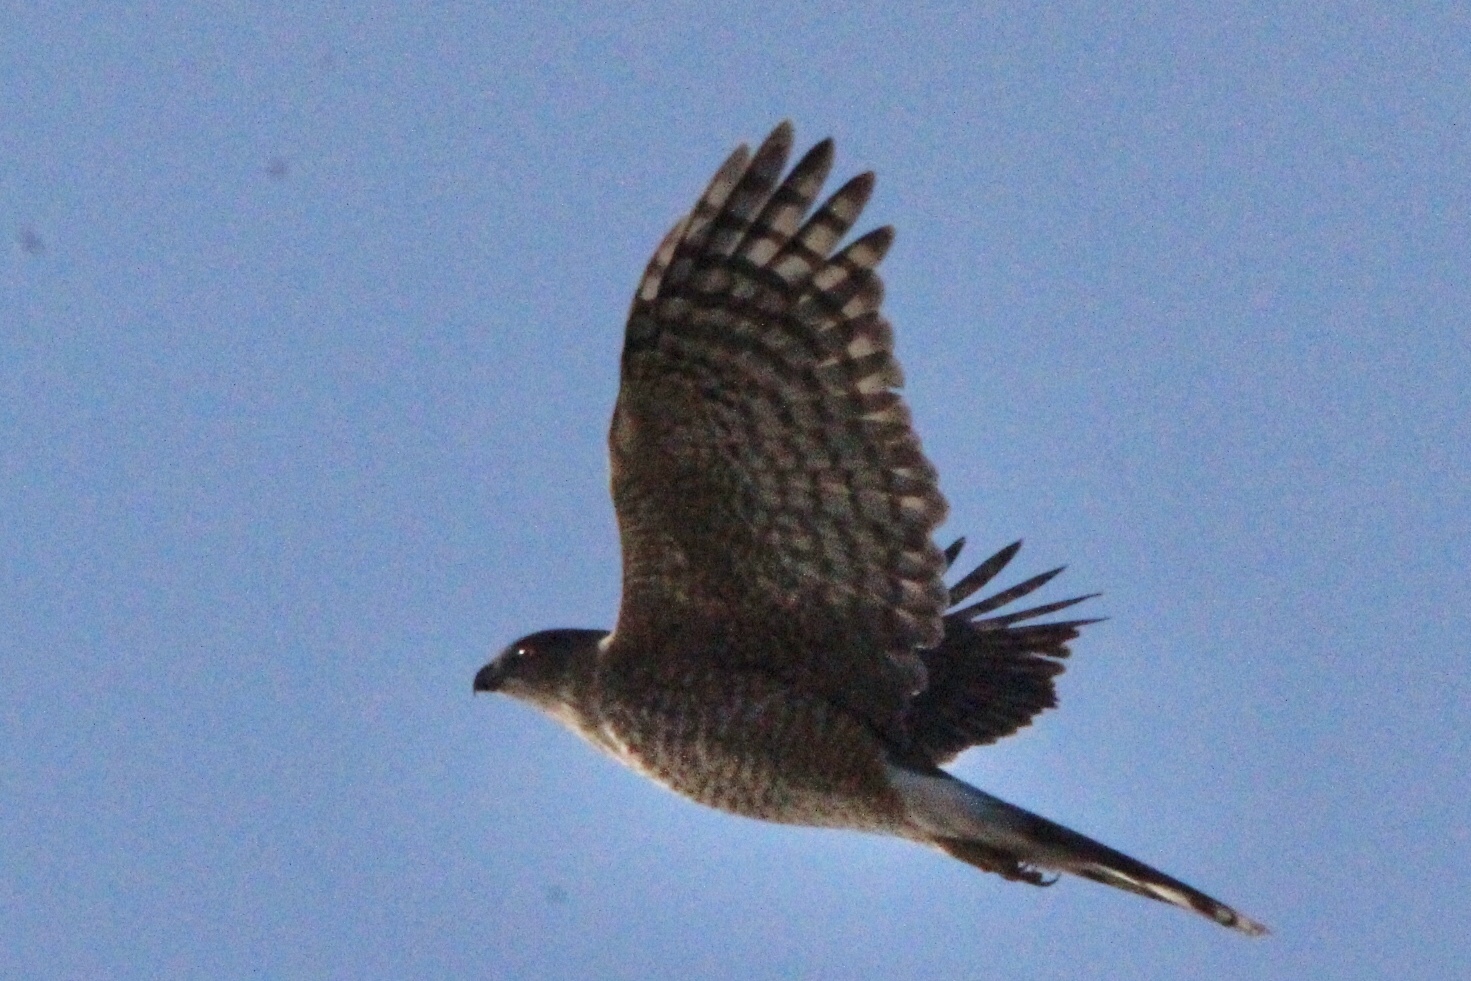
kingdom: Animalia
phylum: Chordata
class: Aves
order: Accipitriformes
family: Accipitridae
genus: Accipiter
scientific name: Accipiter cooperii
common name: Cooper's hawk
